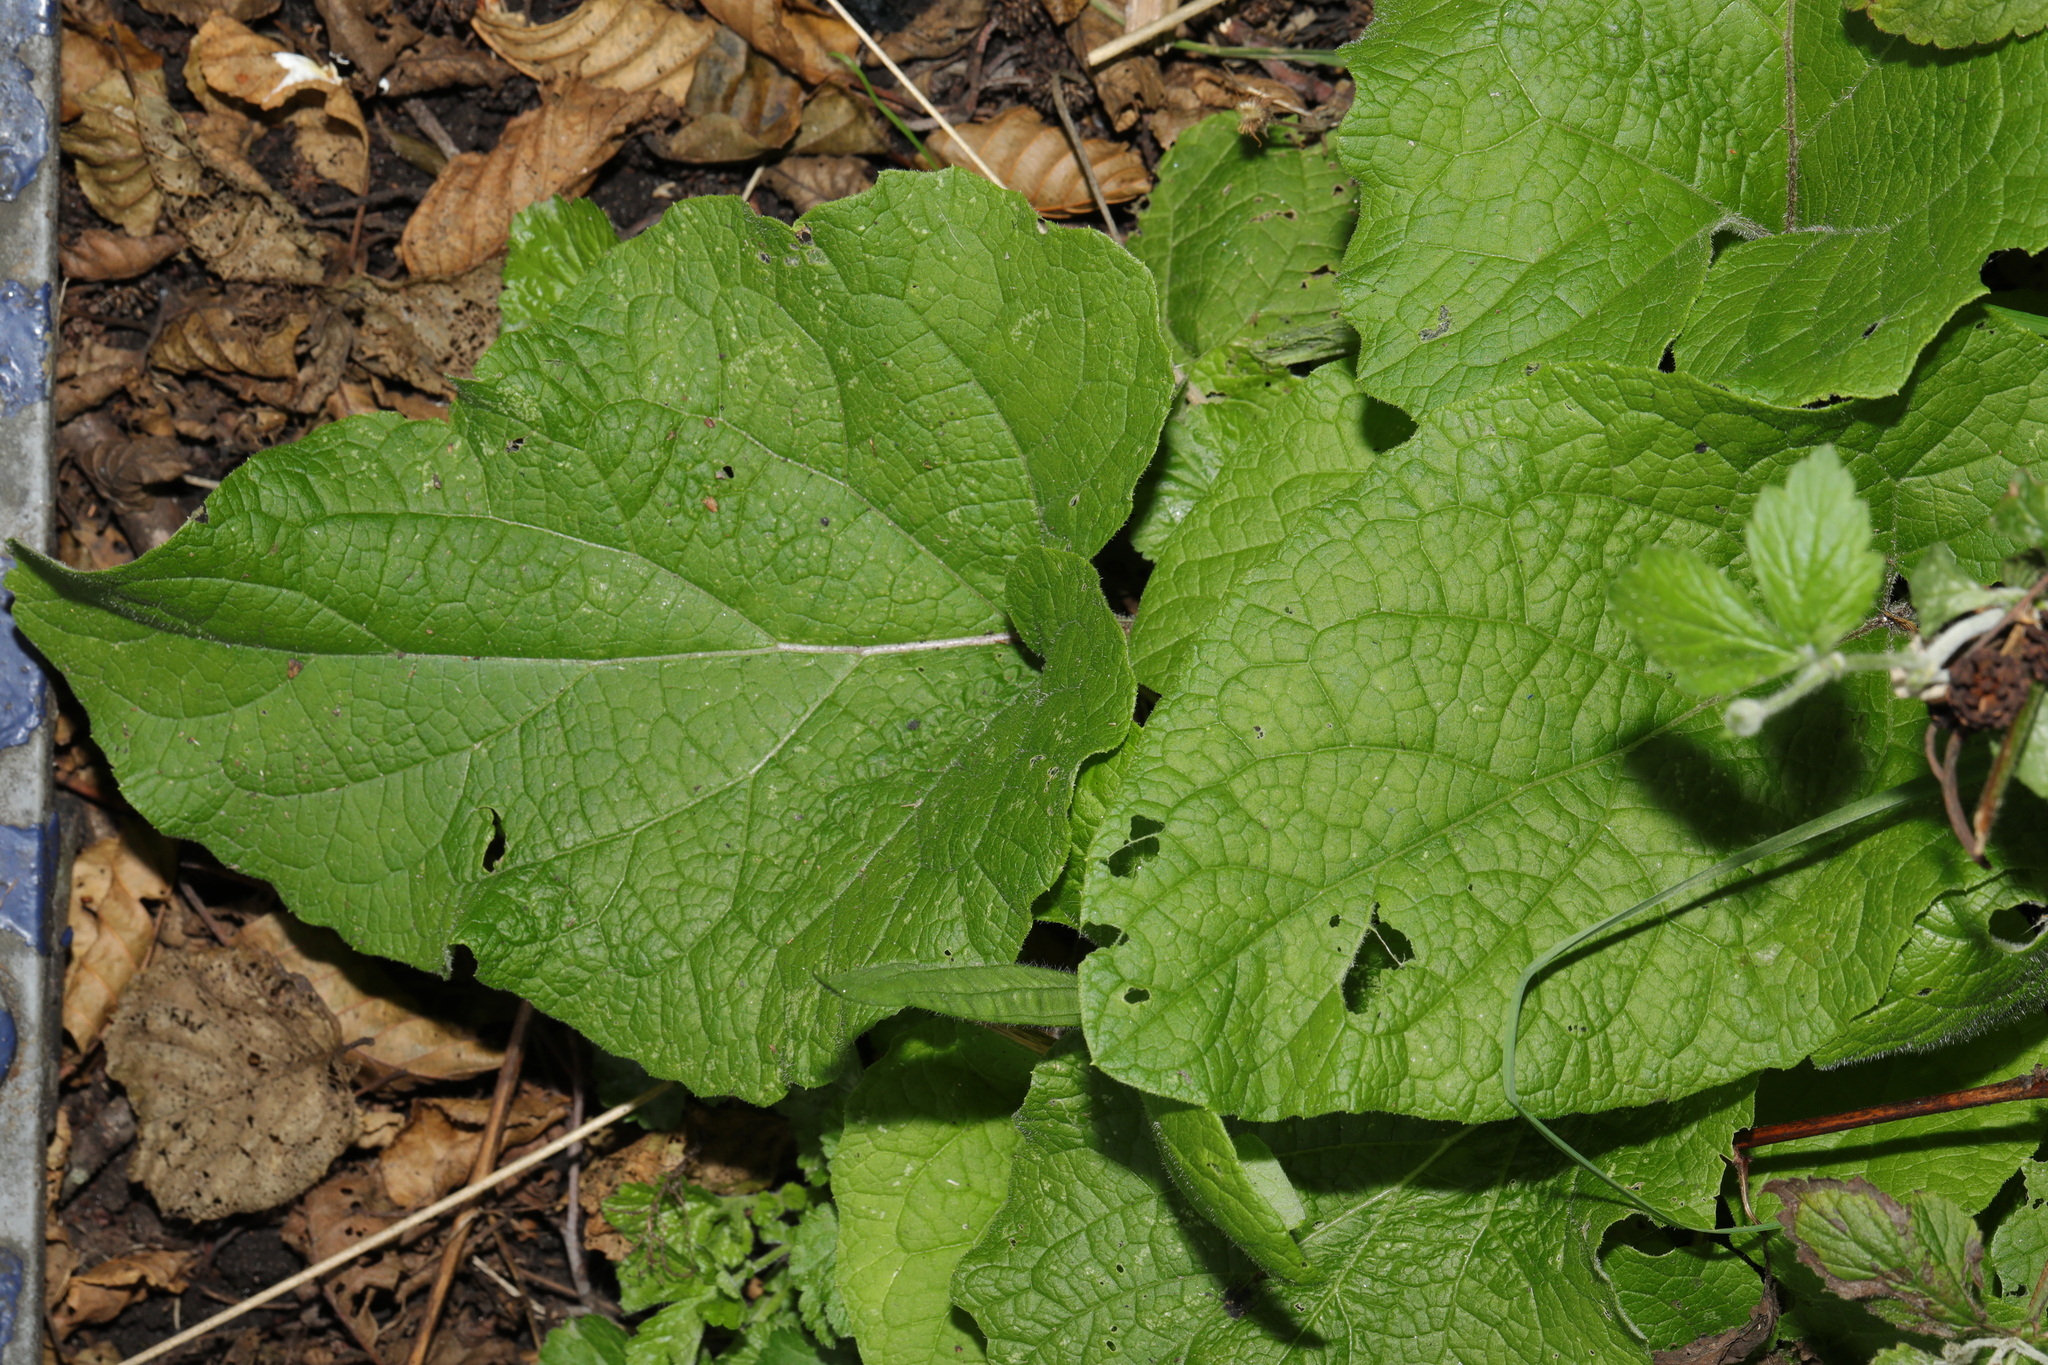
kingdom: Plantae
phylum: Tracheophyta
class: Magnoliopsida
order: Asterales
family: Asteraceae
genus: Arctium
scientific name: Arctium minus
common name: Lesser burdock
